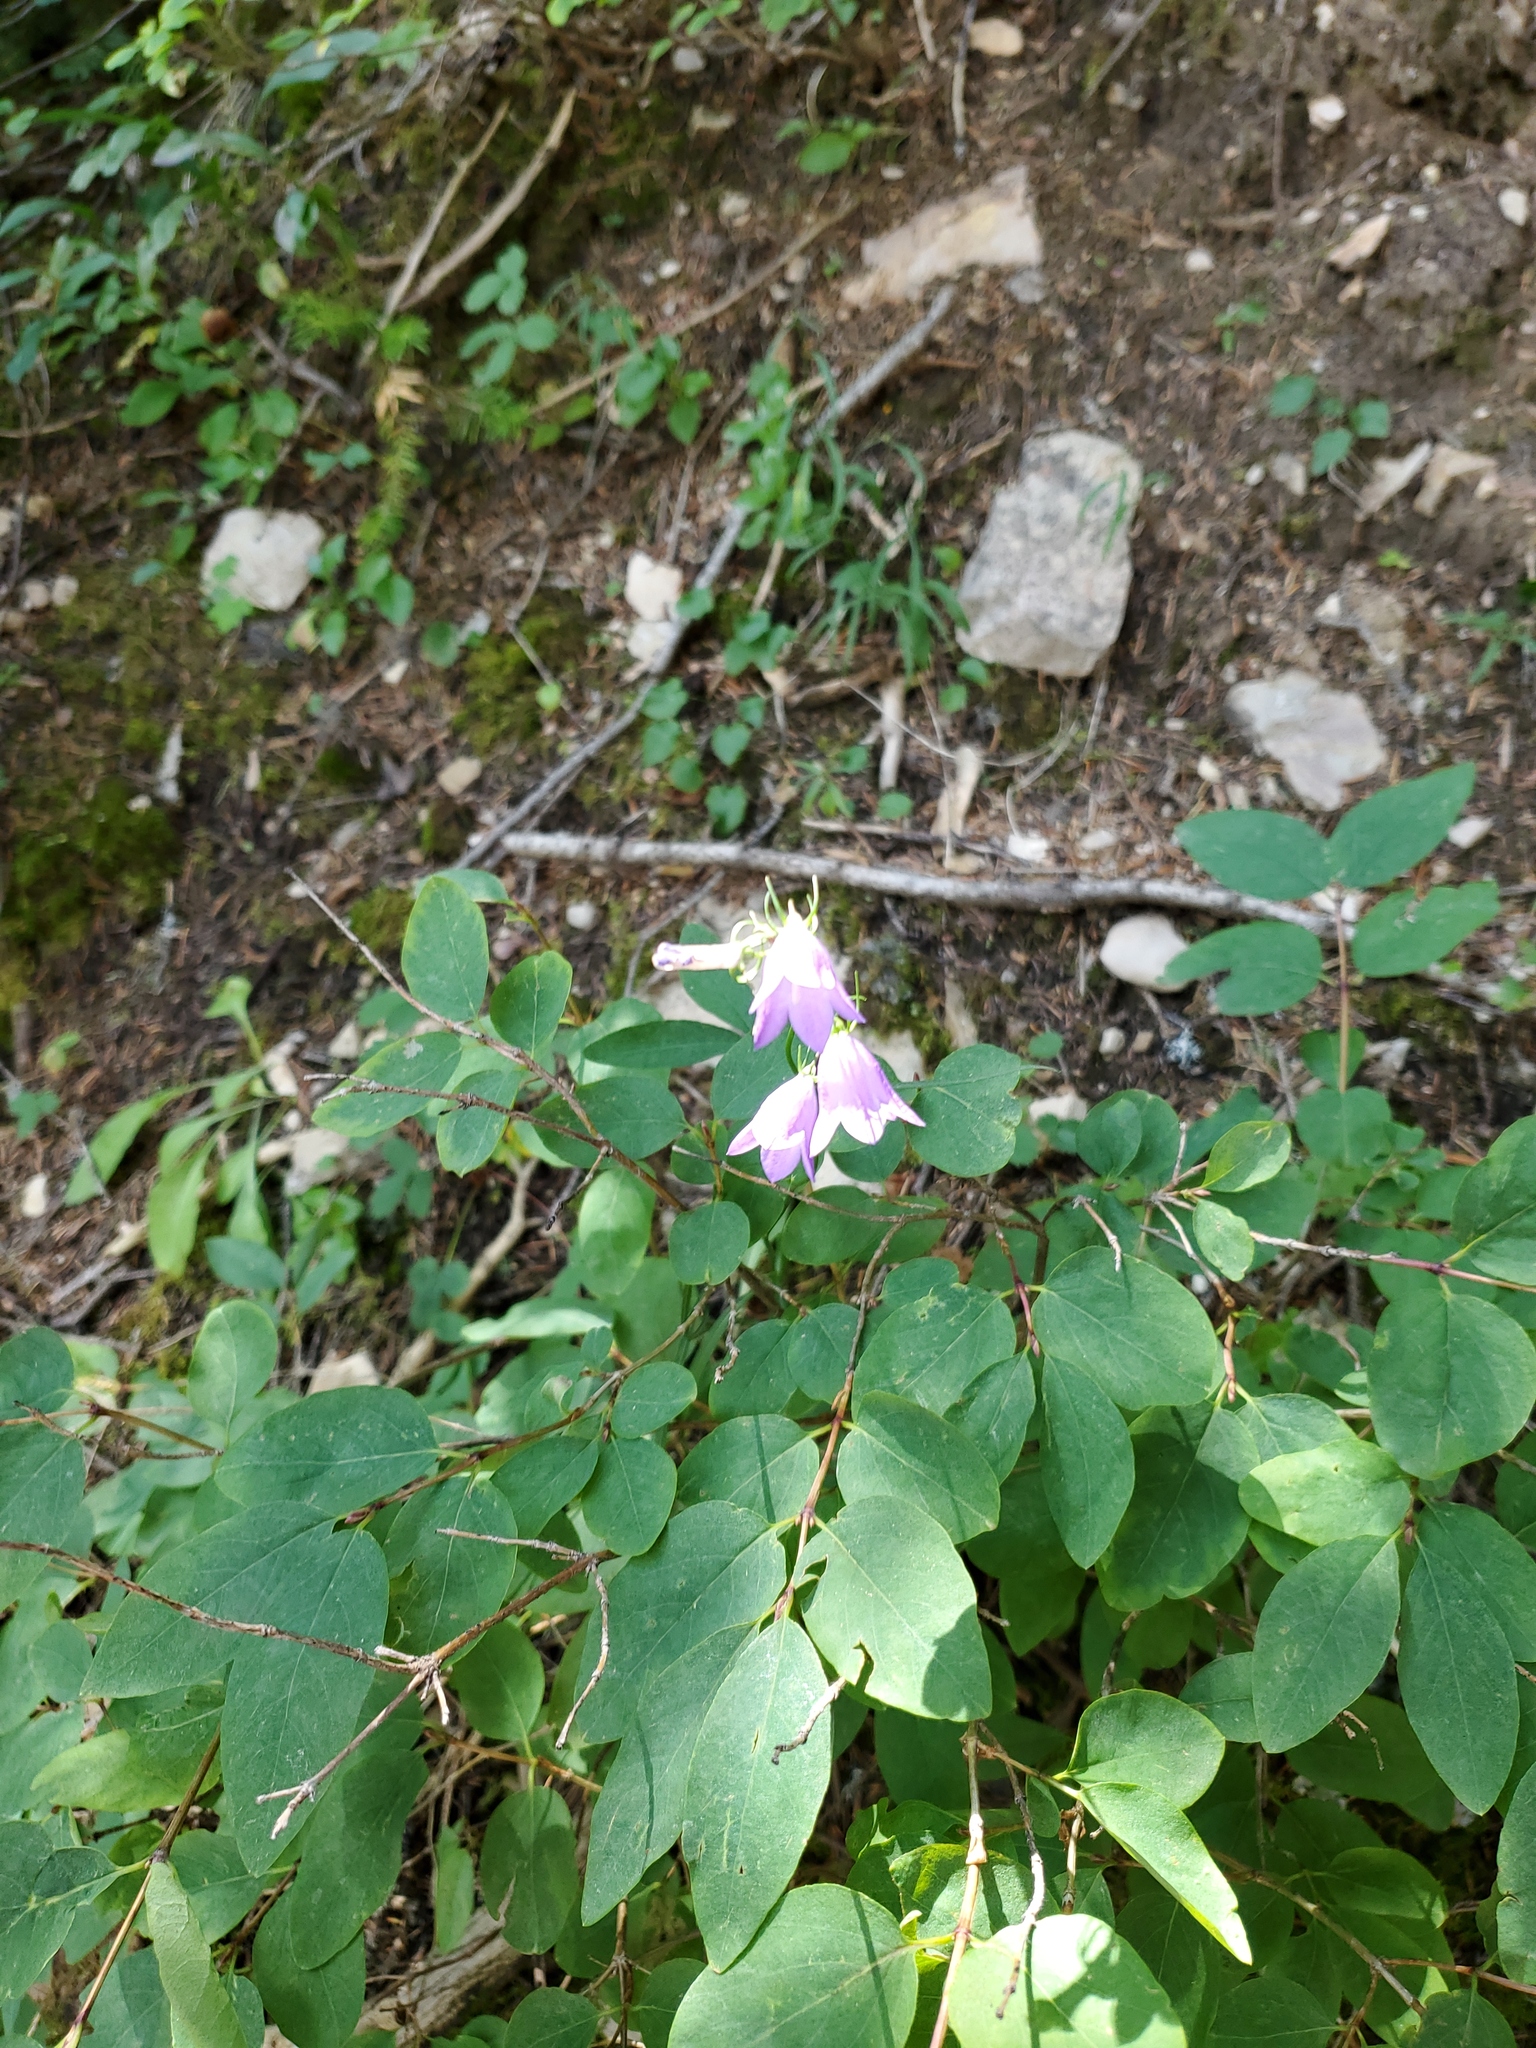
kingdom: Plantae
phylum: Tracheophyta
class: Magnoliopsida
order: Asterales
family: Campanulaceae
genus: Campanula
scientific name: Campanula petiolata
